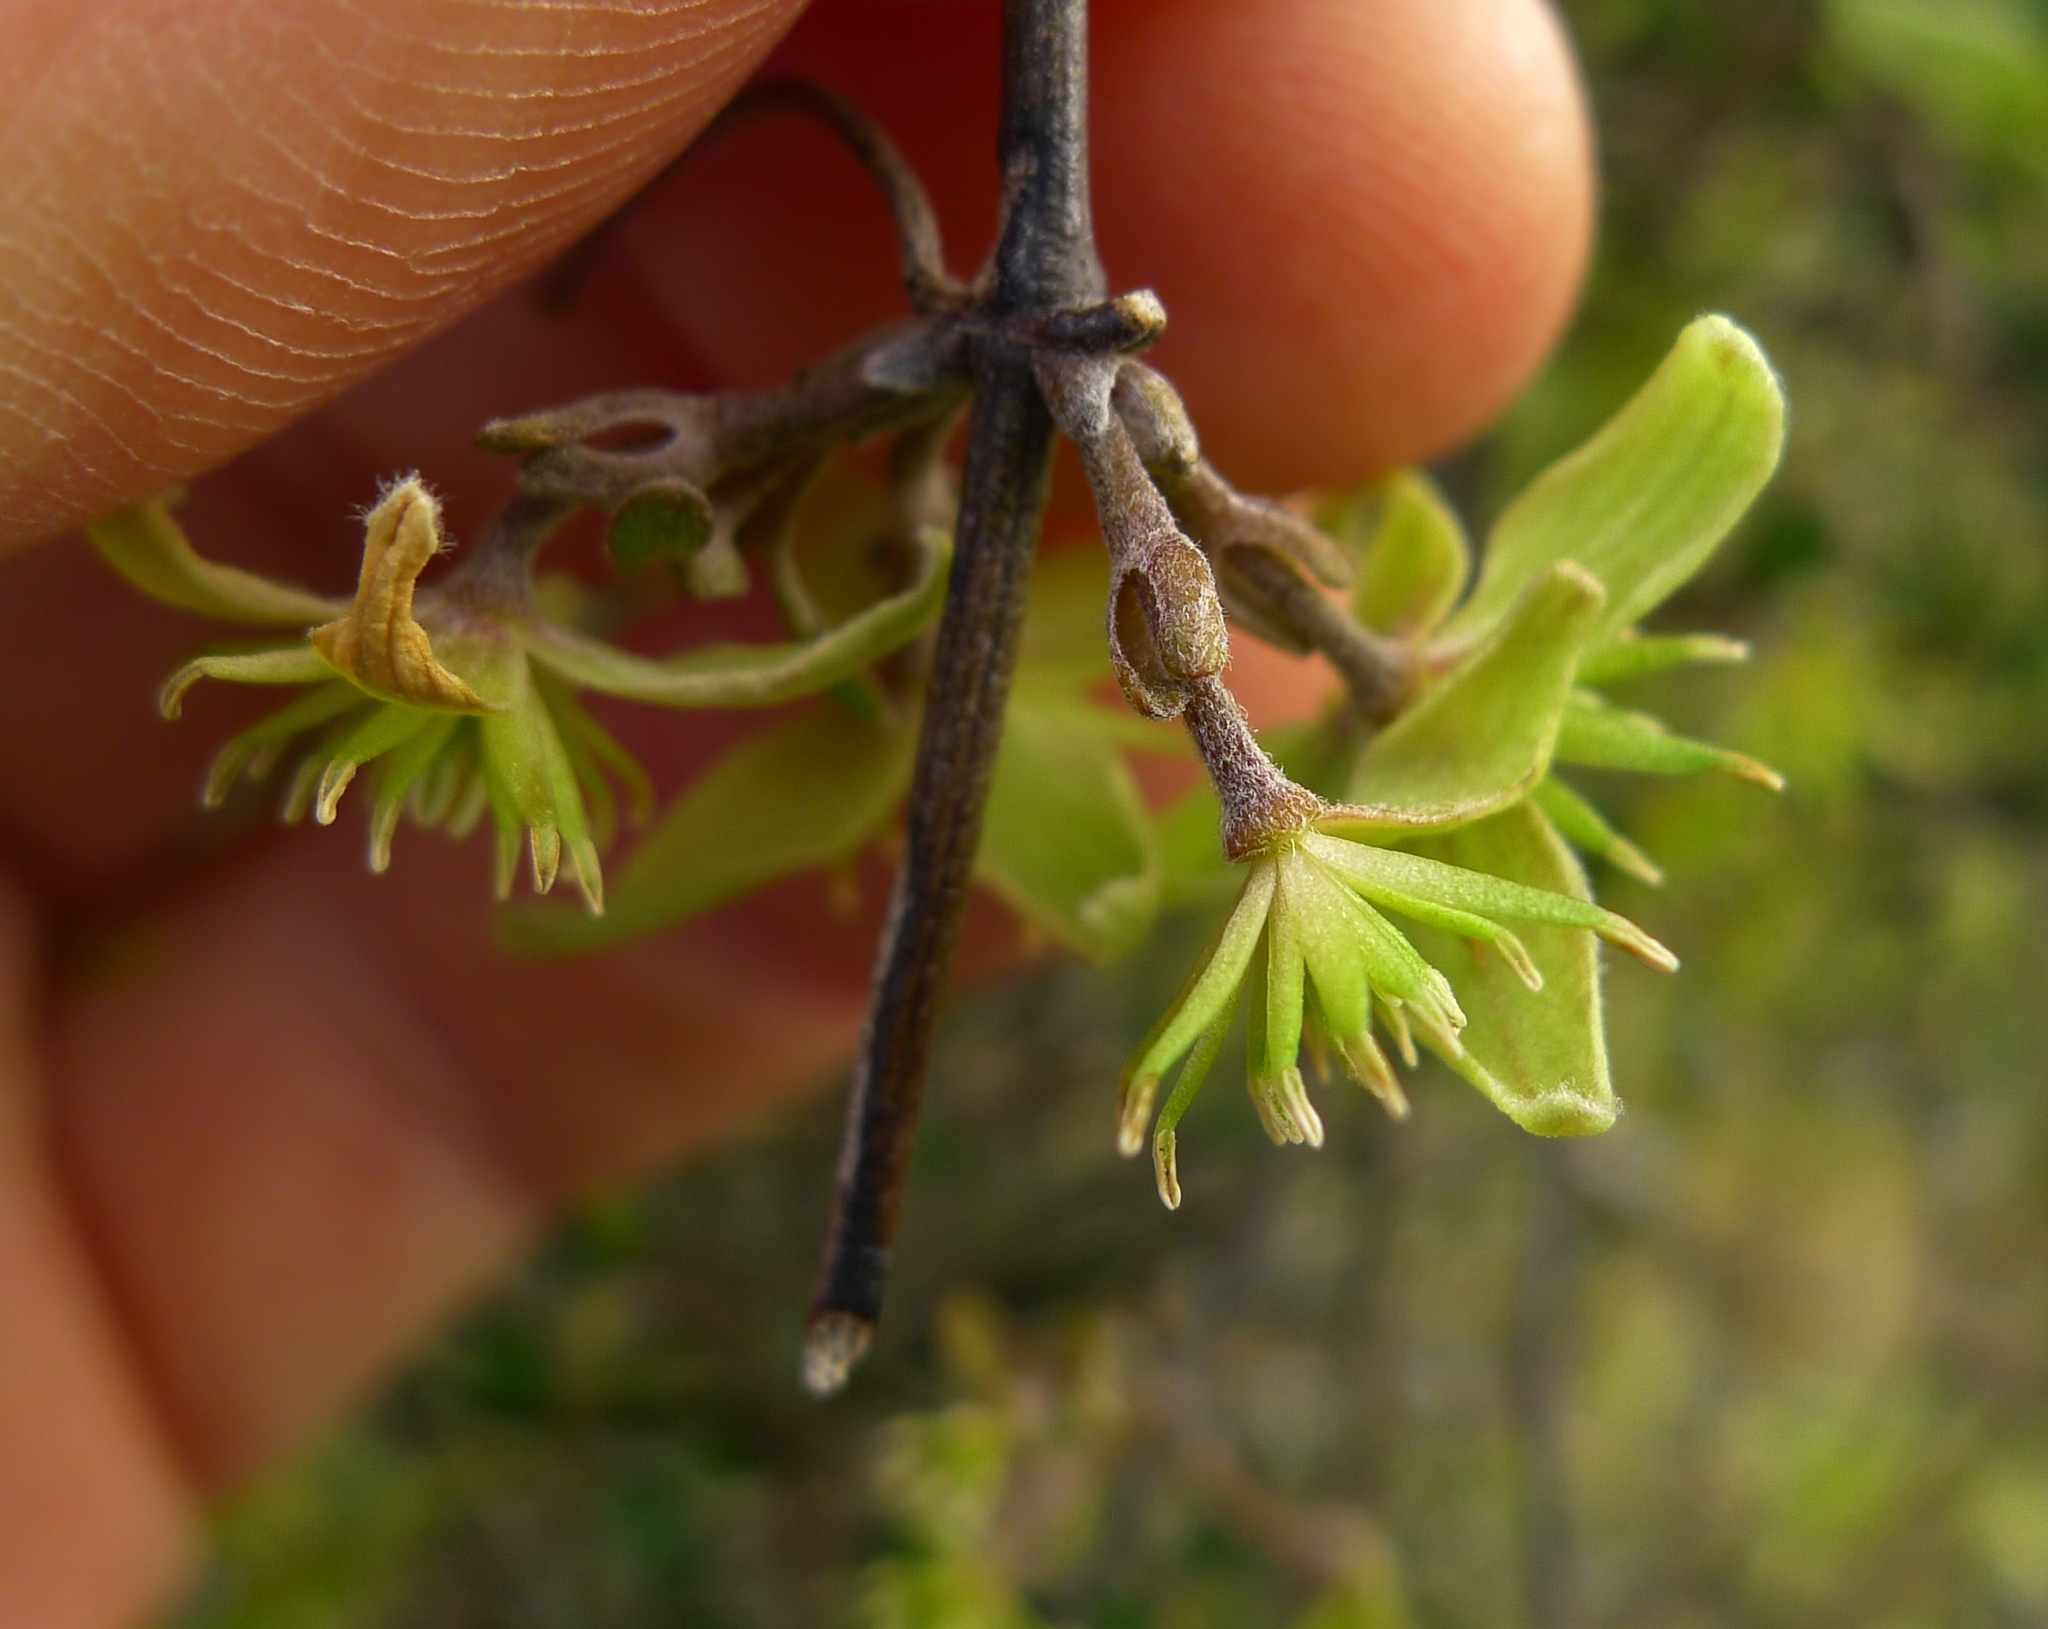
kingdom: Plantae
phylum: Tracheophyta
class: Magnoliopsida
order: Ranunculales
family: Ranunculaceae
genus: Clematis
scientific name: Clematis marata
